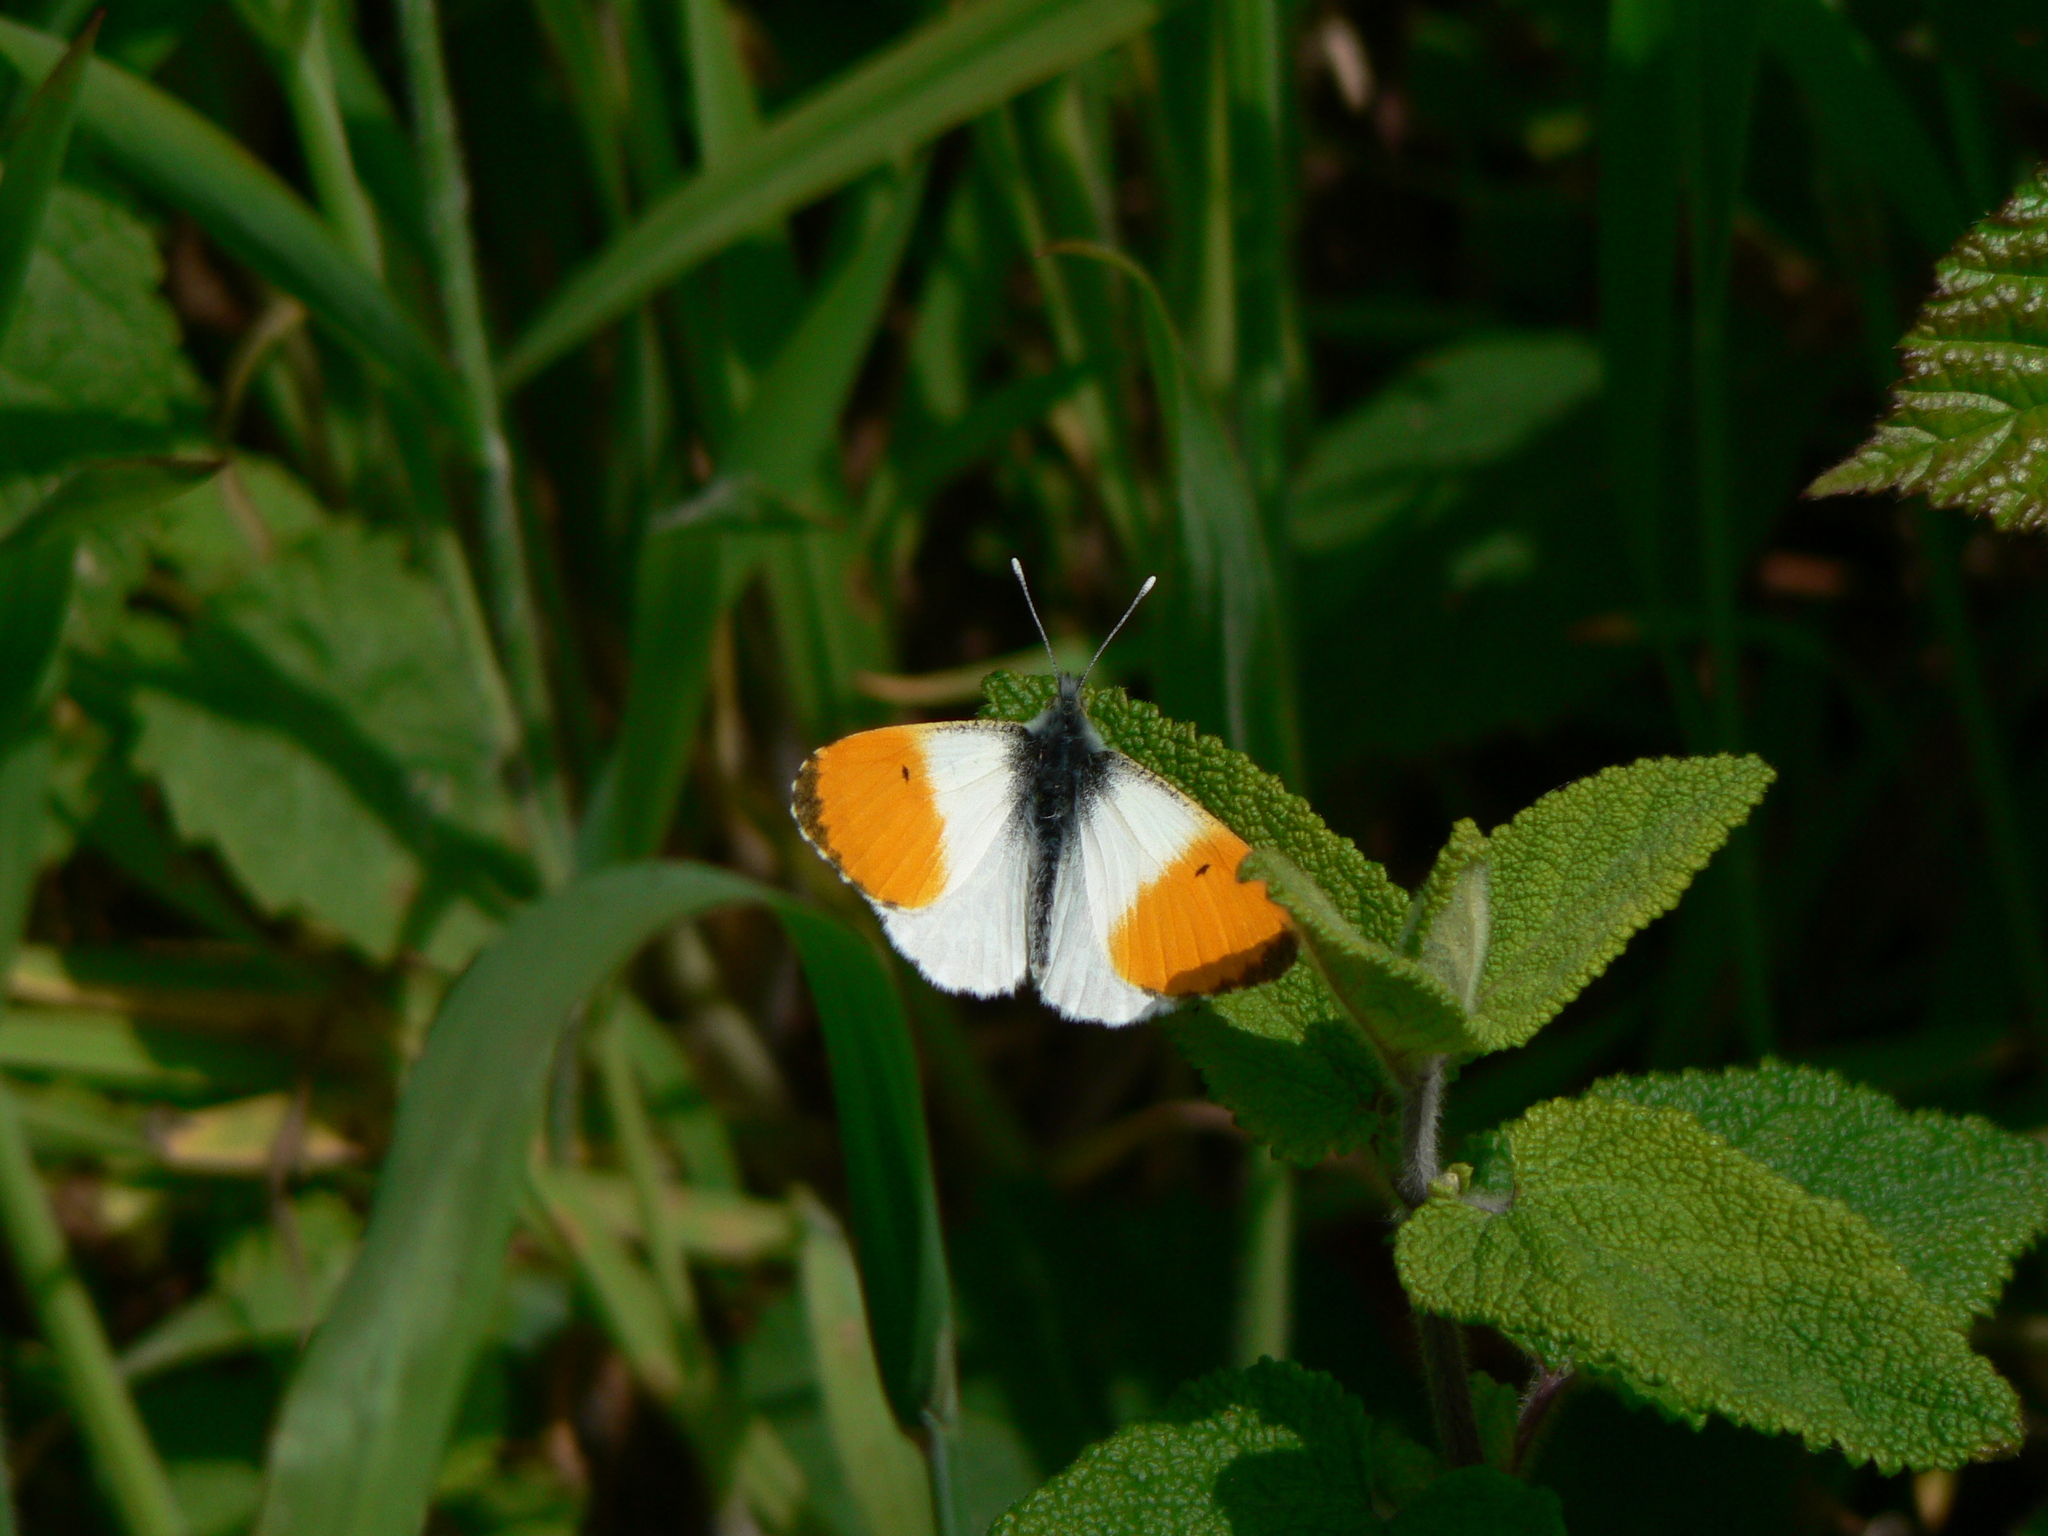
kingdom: Animalia
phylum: Arthropoda
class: Insecta
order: Lepidoptera
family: Pieridae
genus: Anthocharis
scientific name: Anthocharis cardamines
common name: Orange-tip
